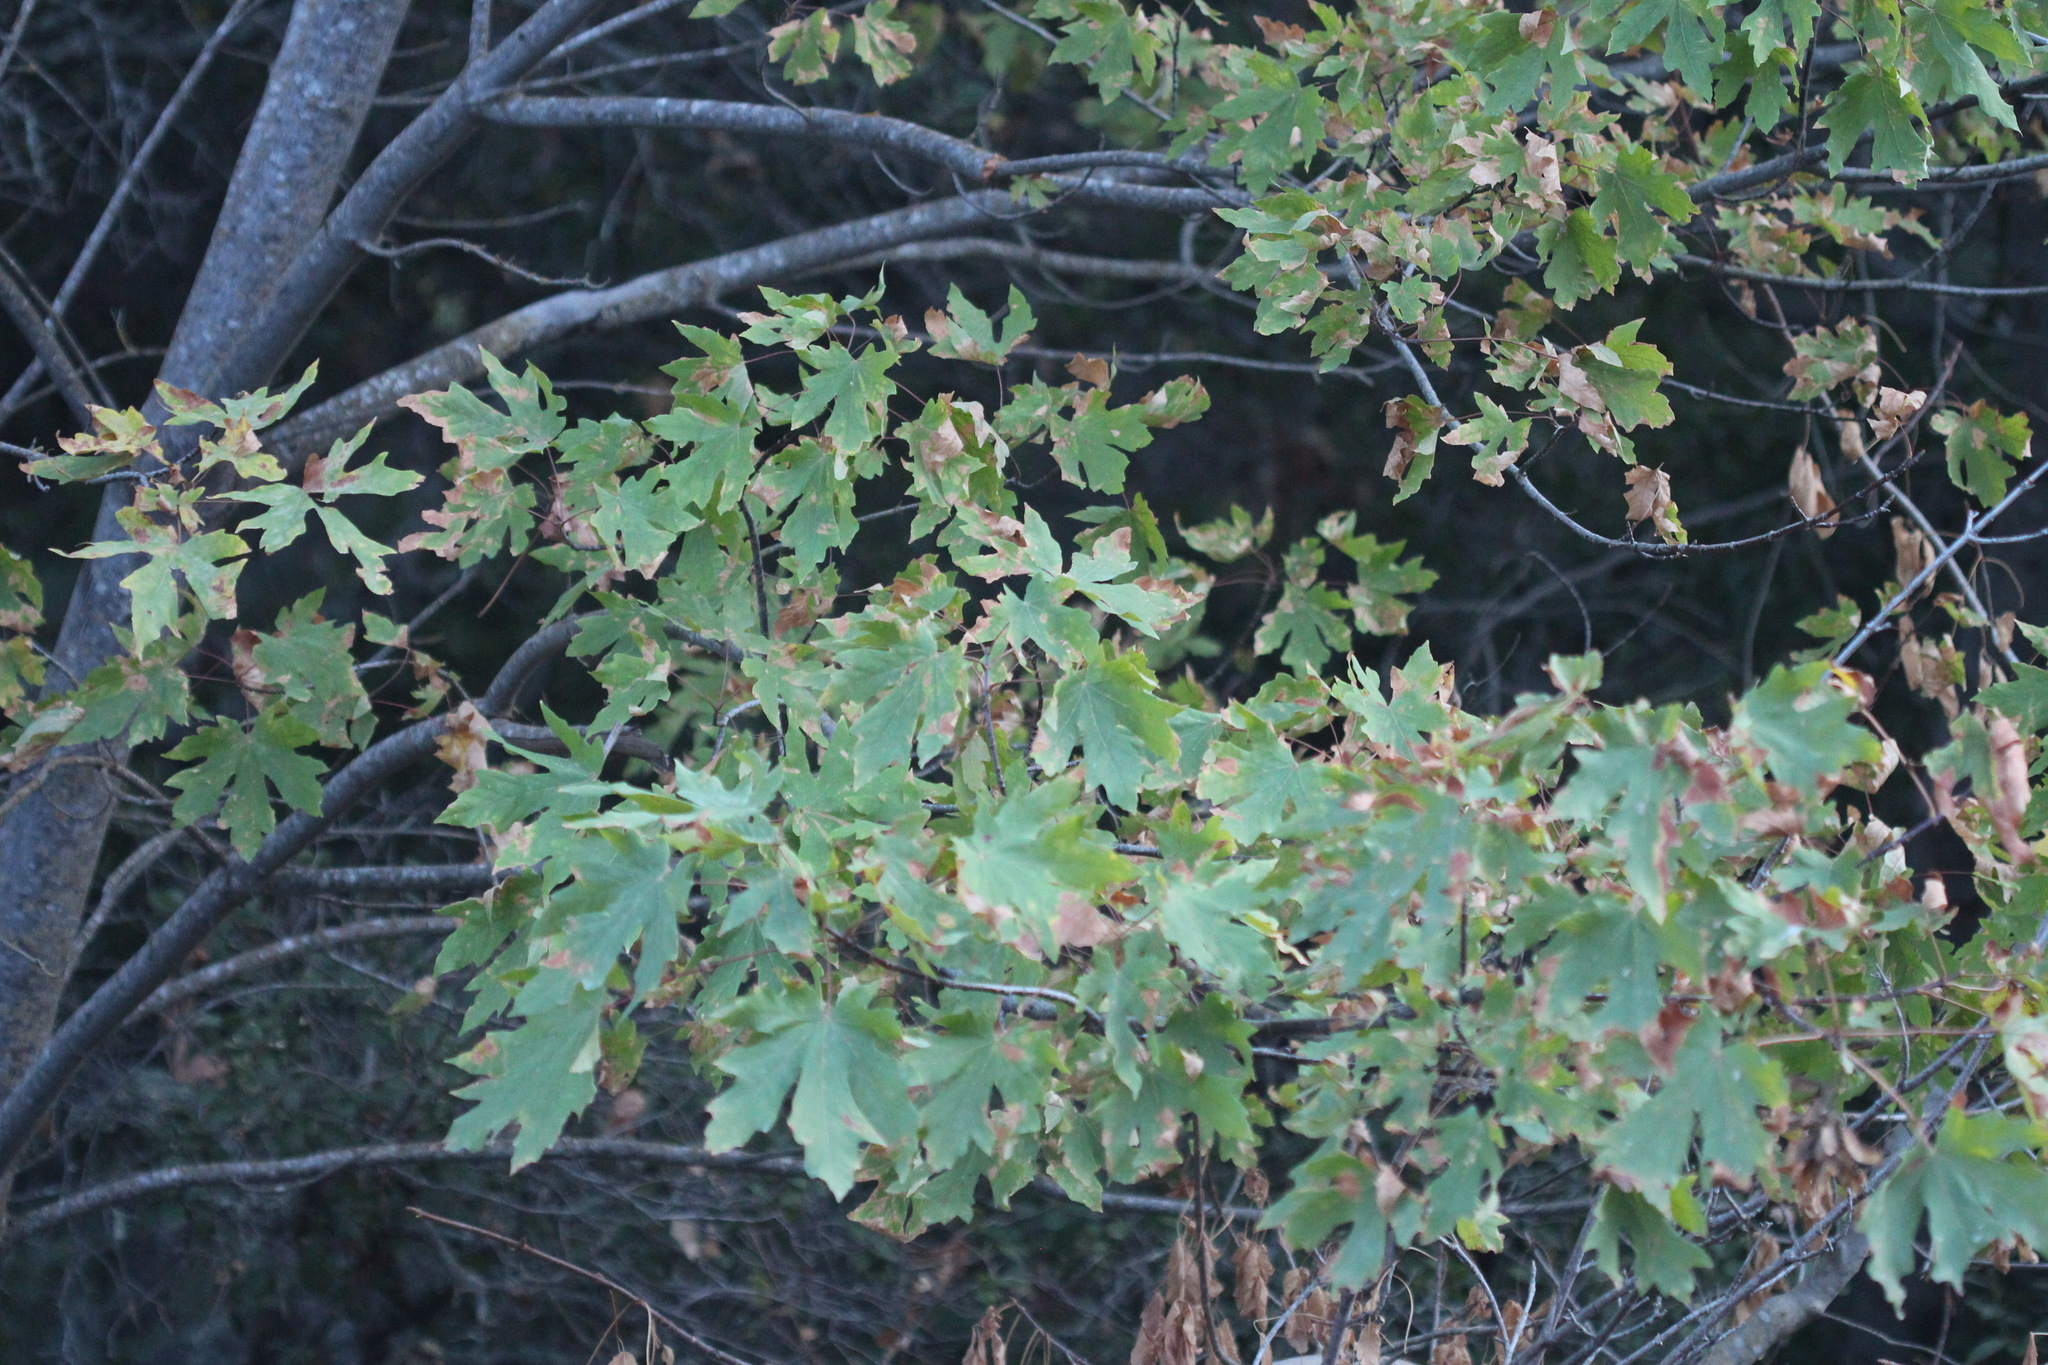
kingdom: Plantae
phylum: Tracheophyta
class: Magnoliopsida
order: Sapindales
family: Sapindaceae
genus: Acer
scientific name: Acer macrophyllum
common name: Oregon maple
